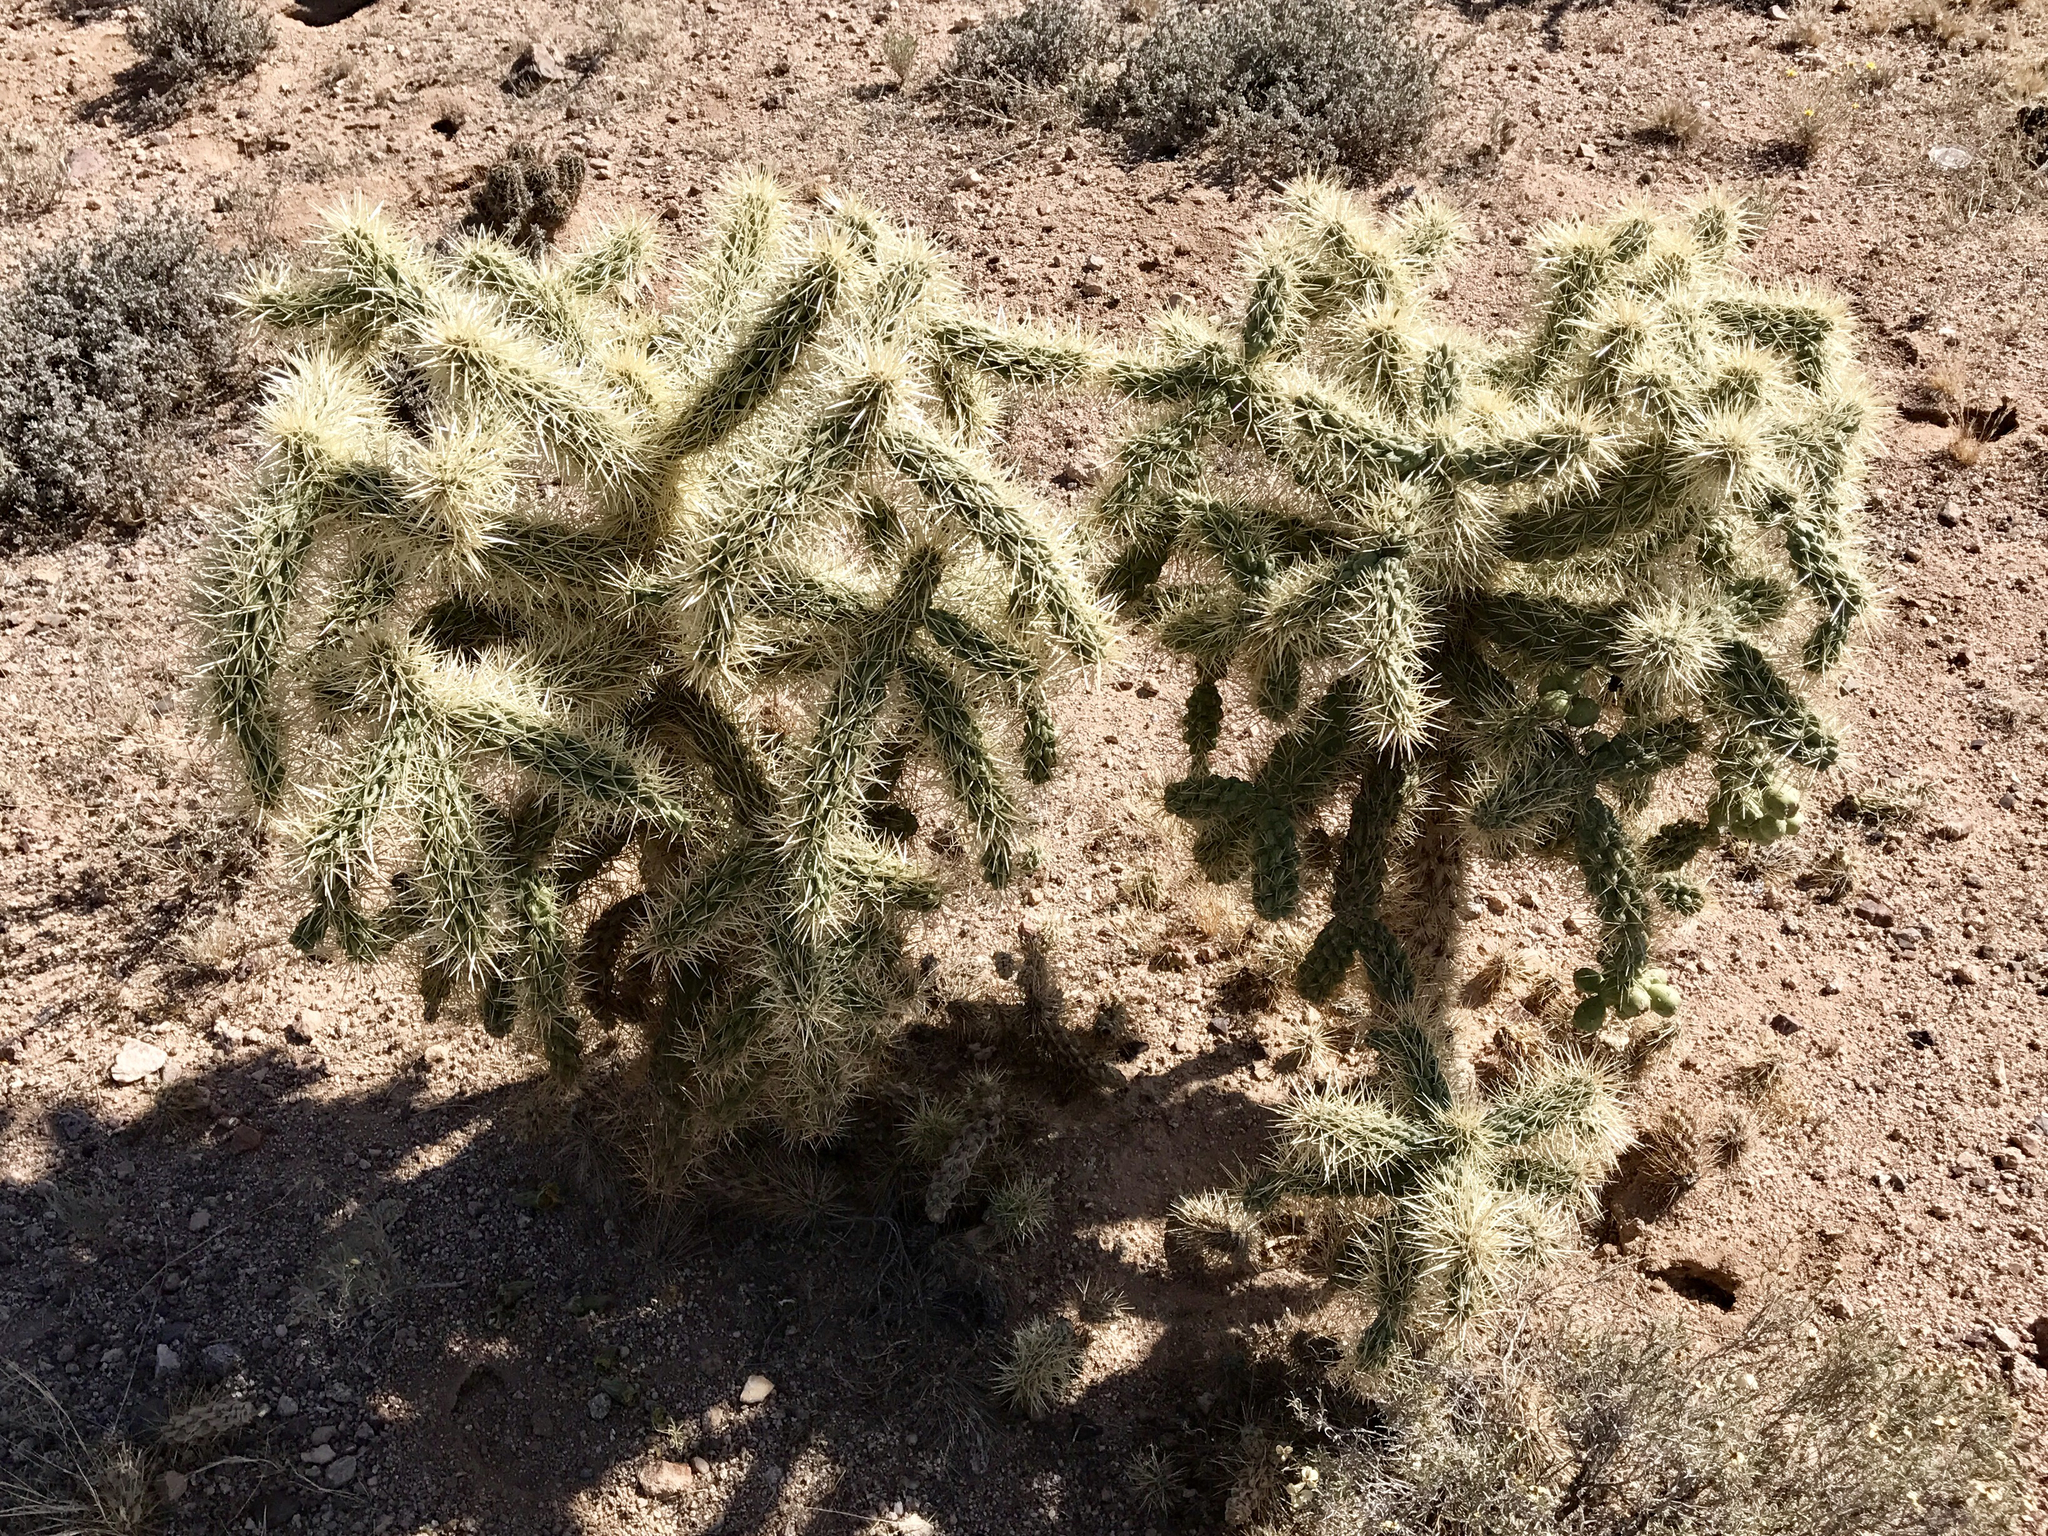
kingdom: Plantae
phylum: Tracheophyta
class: Magnoliopsida
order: Caryophyllales
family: Cactaceae
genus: Cylindropuntia
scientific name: Cylindropuntia fulgida
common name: Jumping cholla
